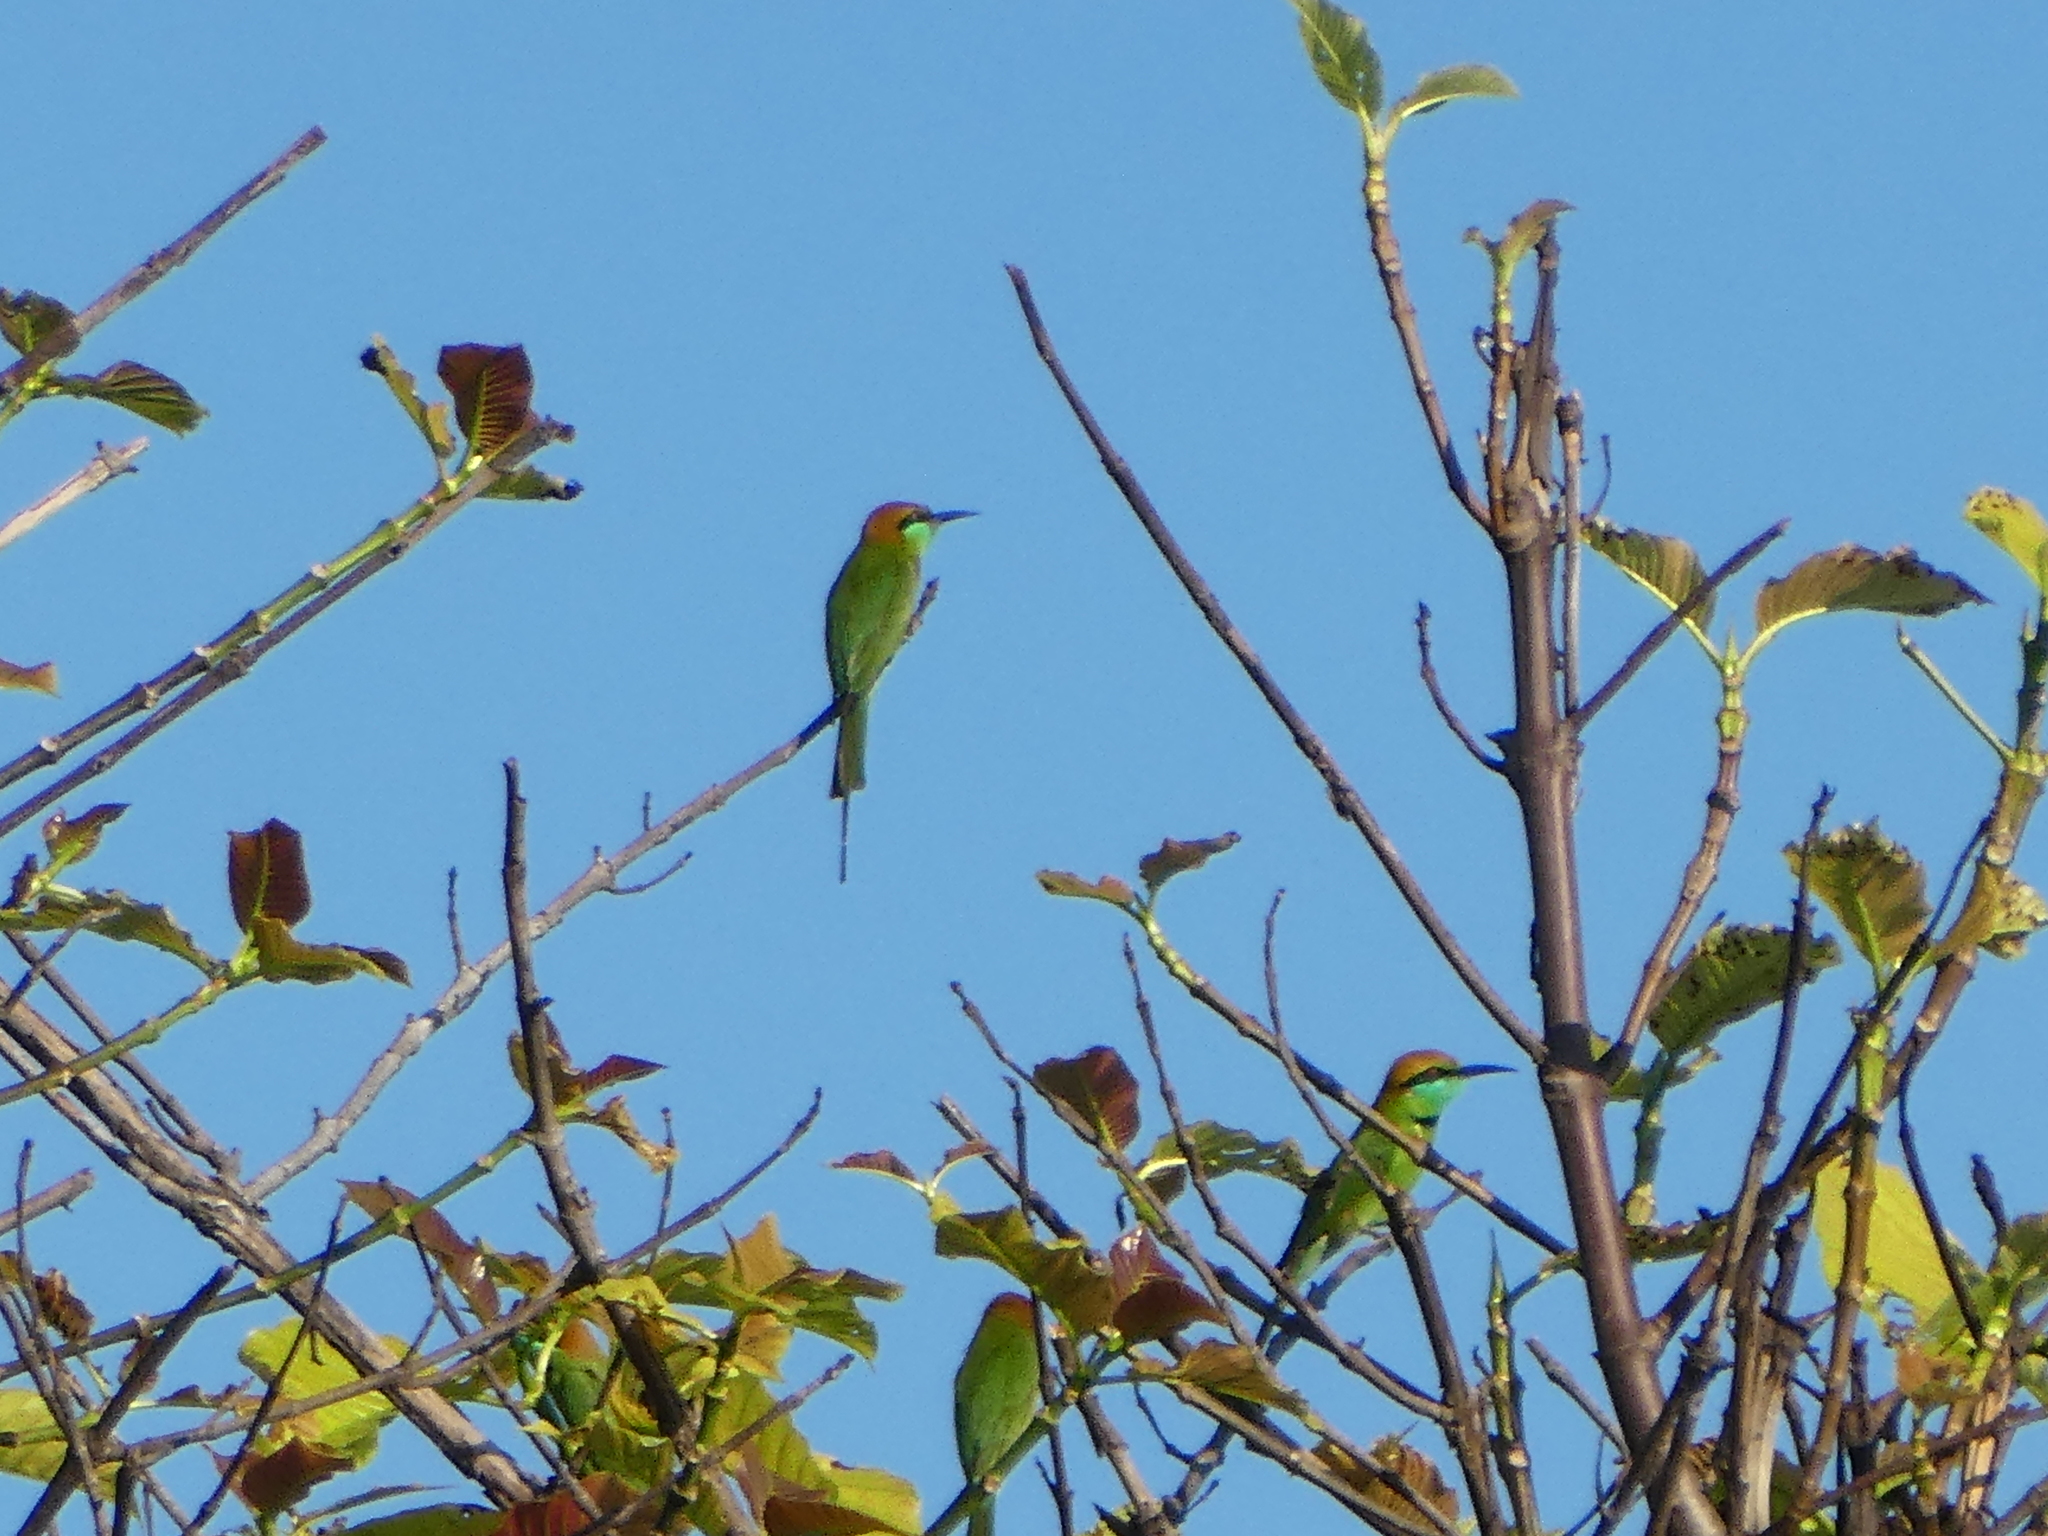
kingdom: Animalia
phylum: Chordata
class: Aves
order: Coraciiformes
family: Meropidae
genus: Merops
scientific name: Merops orientalis
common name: Green bee-eater
